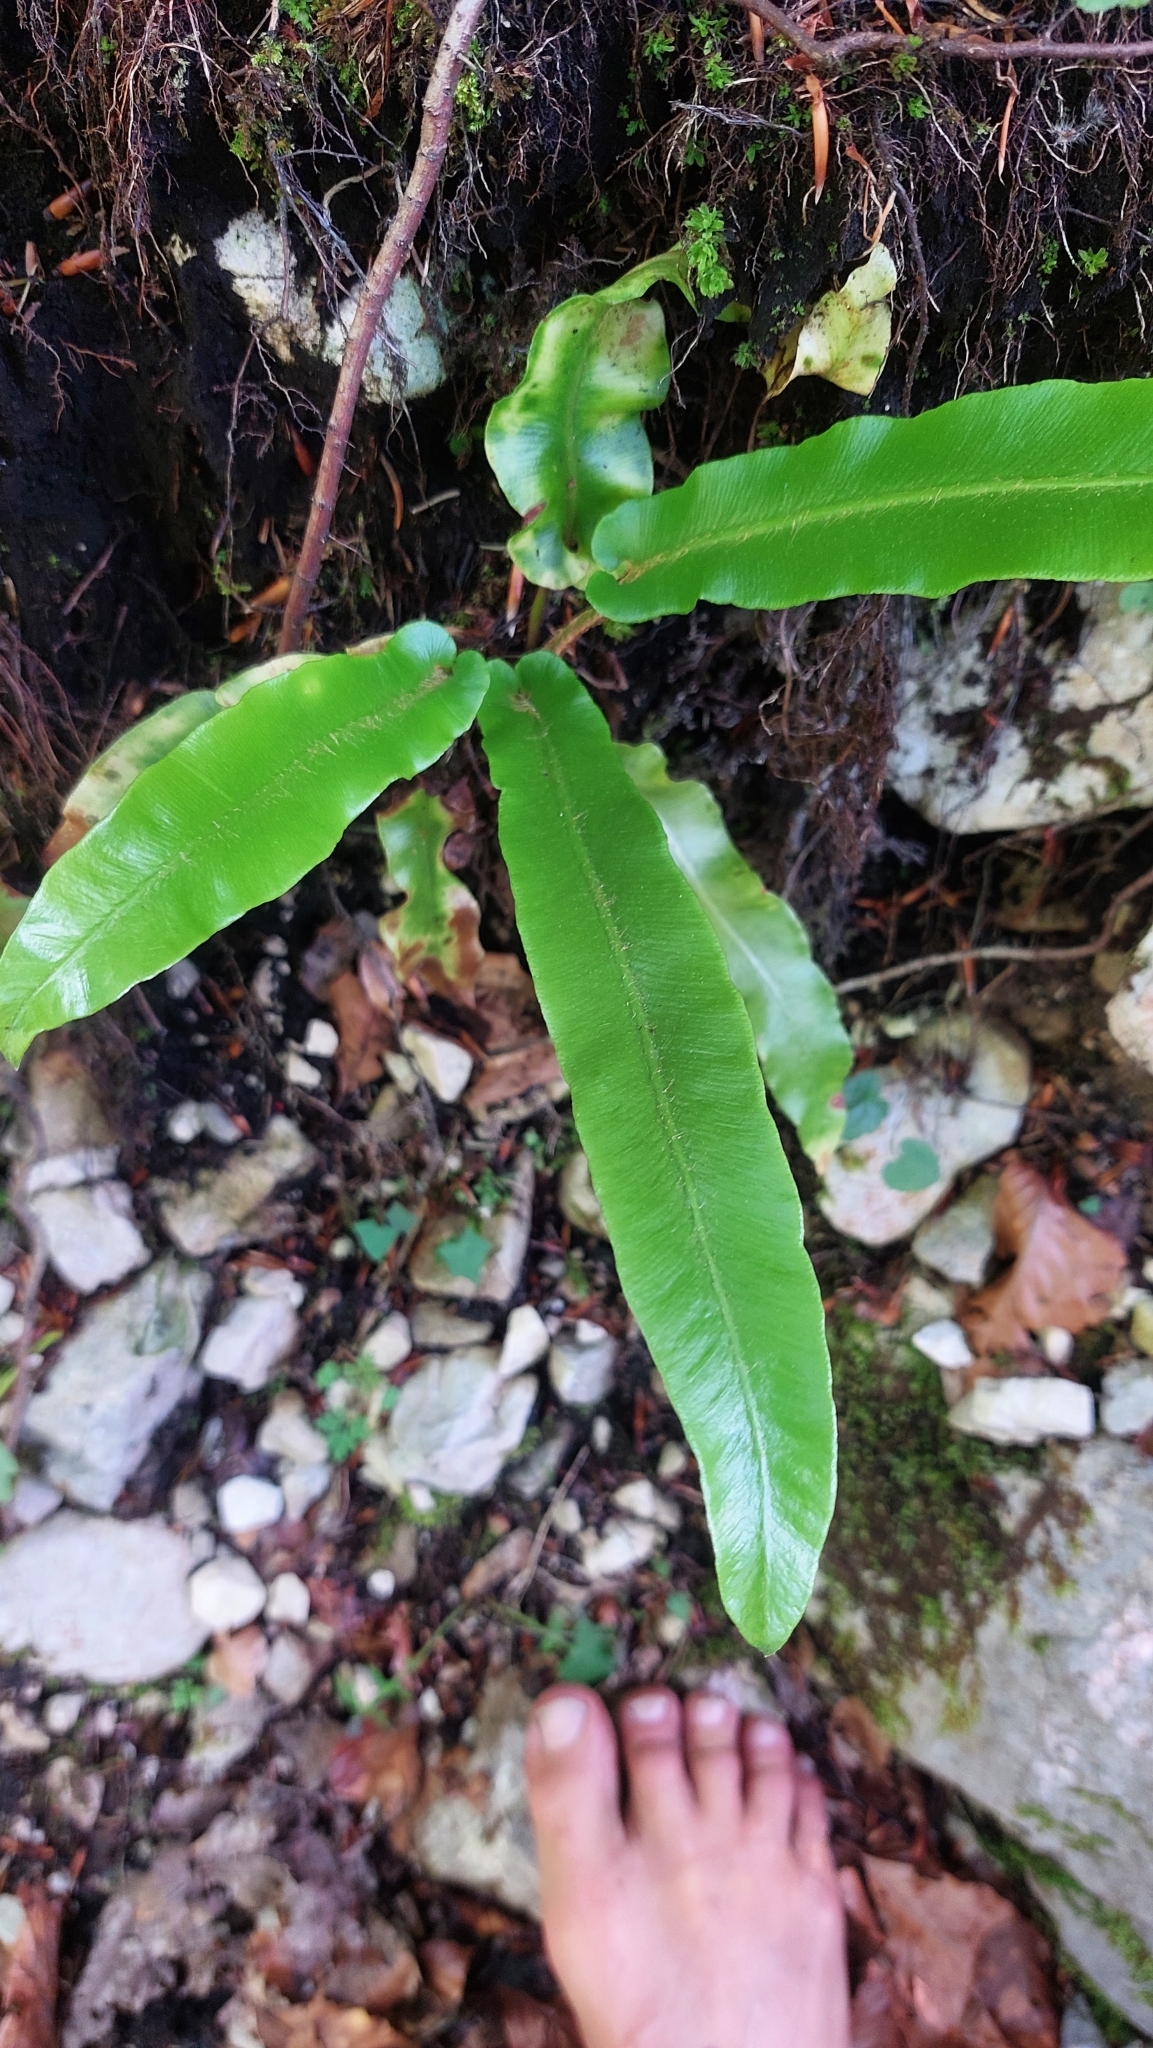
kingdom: Plantae
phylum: Tracheophyta
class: Polypodiopsida
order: Polypodiales
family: Aspleniaceae
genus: Asplenium
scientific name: Asplenium scolopendrium
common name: Hart's-tongue fern
